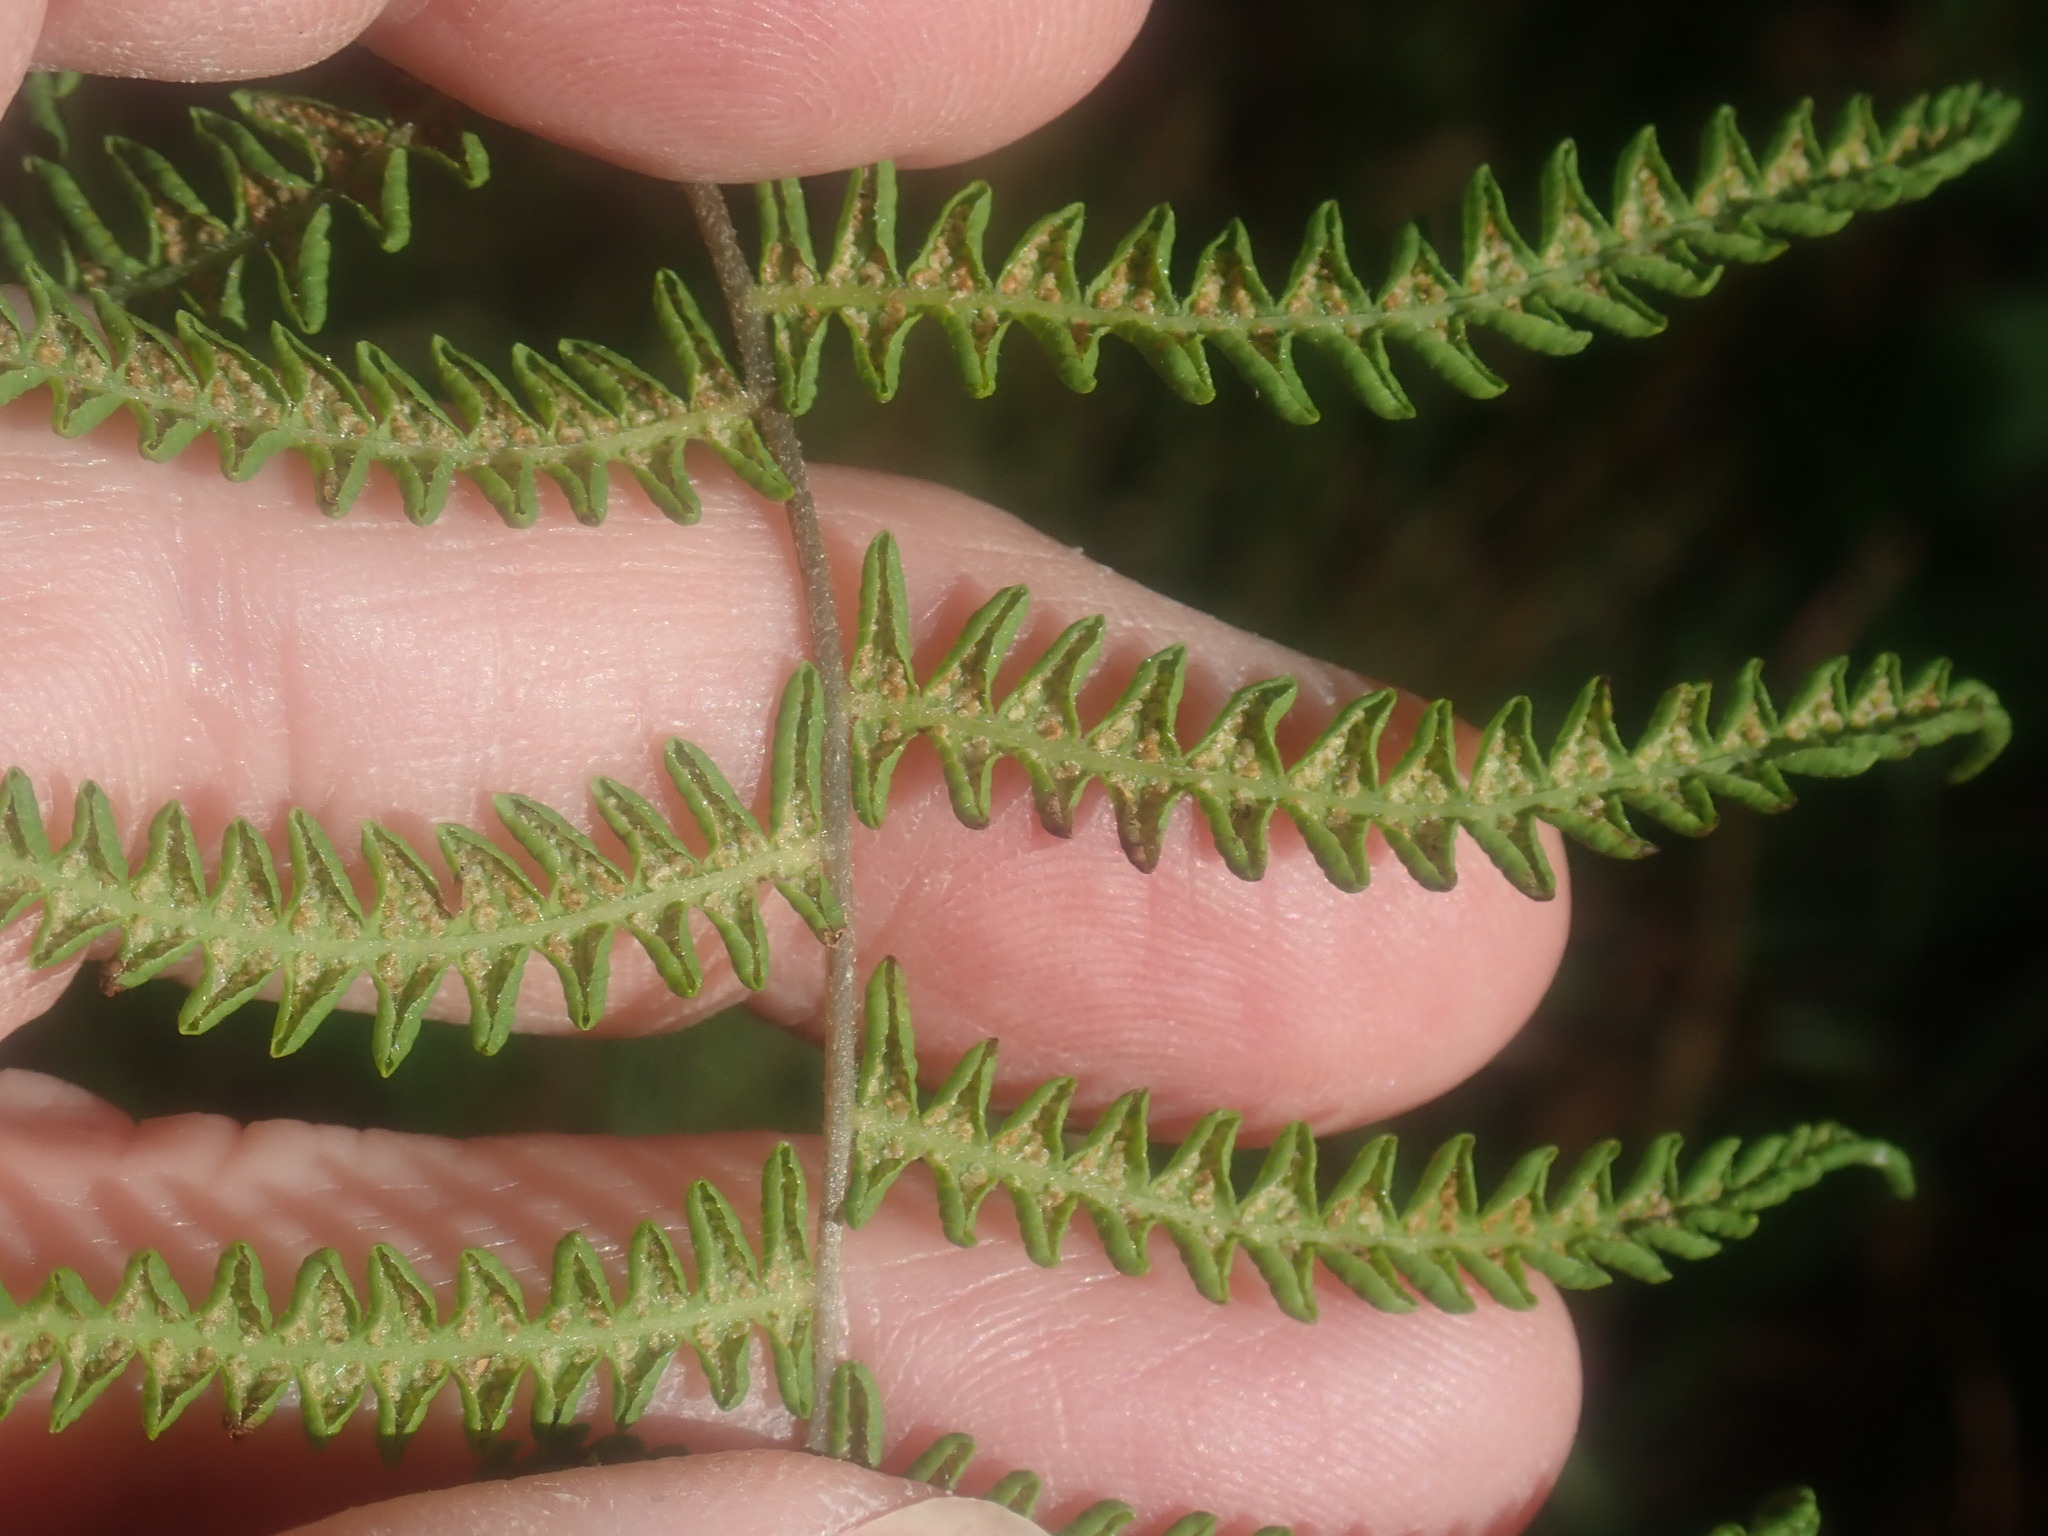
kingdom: Plantae
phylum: Tracheophyta
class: Polypodiopsida
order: Polypodiales
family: Thelypteridaceae
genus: Thelypteris
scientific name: Thelypteris palustris
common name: Marsh fern
